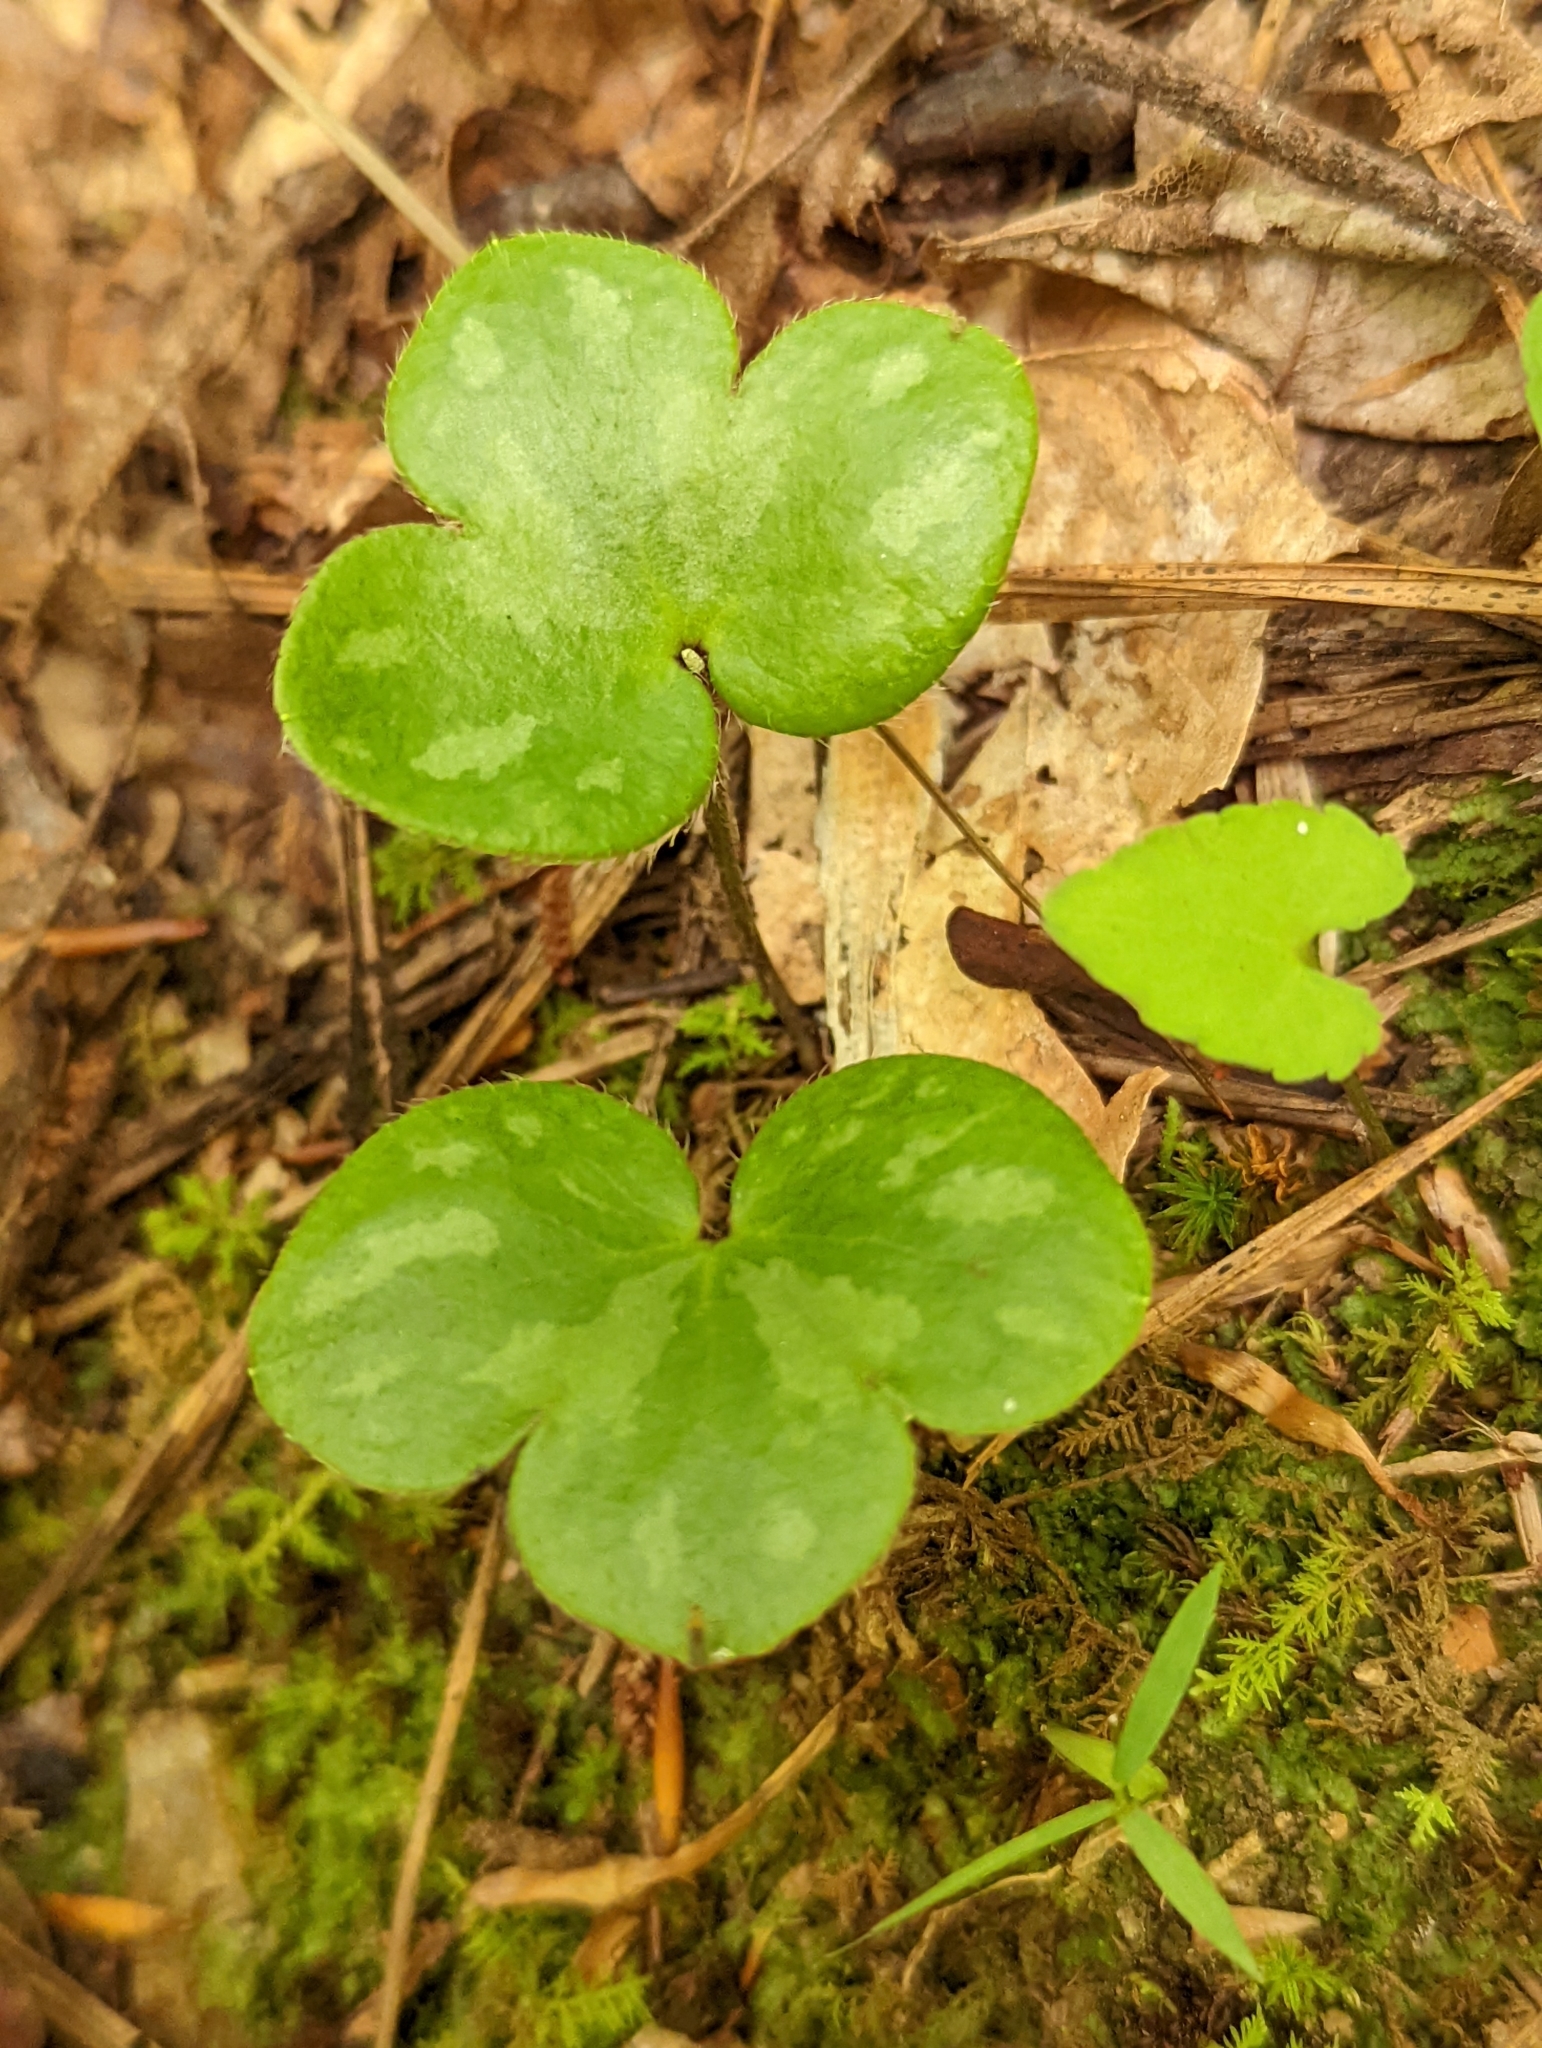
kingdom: Plantae
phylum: Tracheophyta
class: Magnoliopsida
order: Ranunculales
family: Ranunculaceae
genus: Hepatica
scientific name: Hepatica americana
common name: American hepatica
